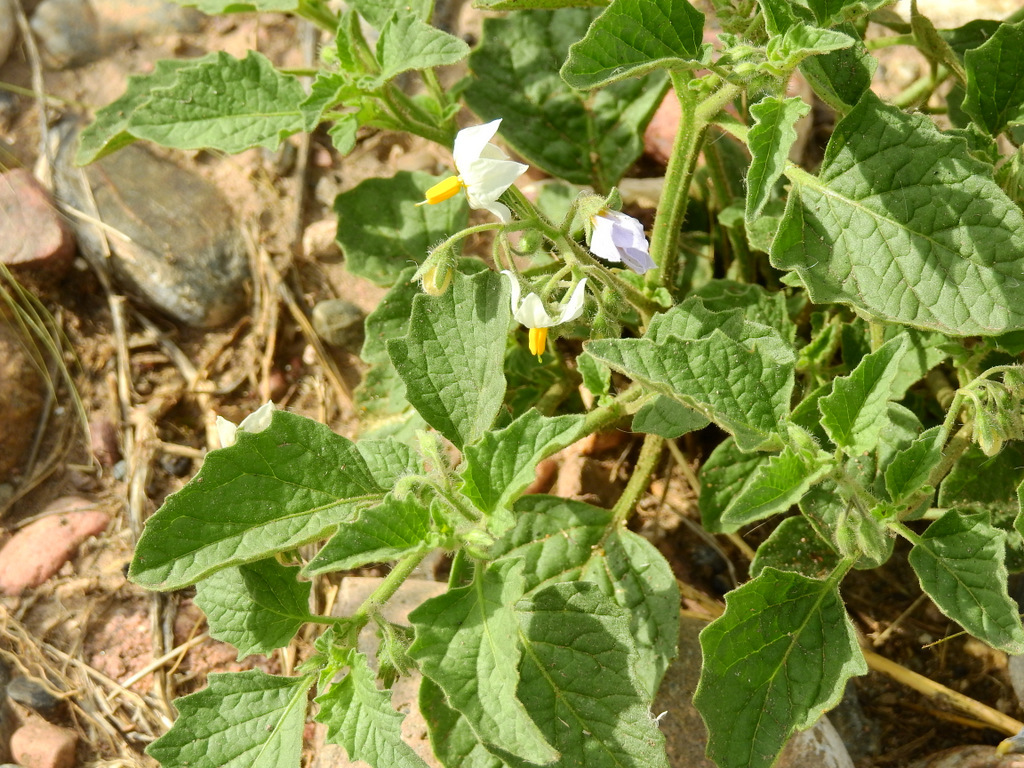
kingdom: Plantae
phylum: Tracheophyta
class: Magnoliopsida
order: Solanales
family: Solanaceae
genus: Solanum
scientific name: Solanum tweedianum
